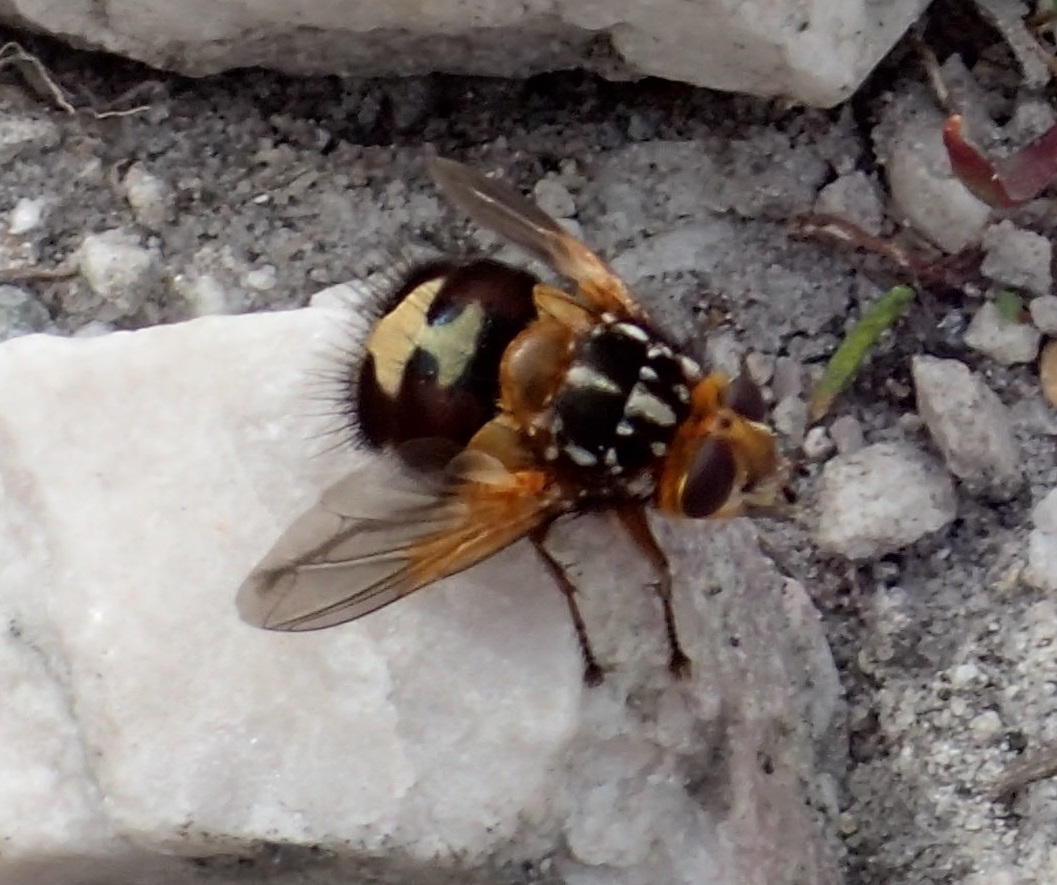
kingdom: Animalia
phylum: Arthropoda
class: Insecta
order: Diptera
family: Tachinidae
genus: Microtropesa
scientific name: Microtropesa nigricornis
